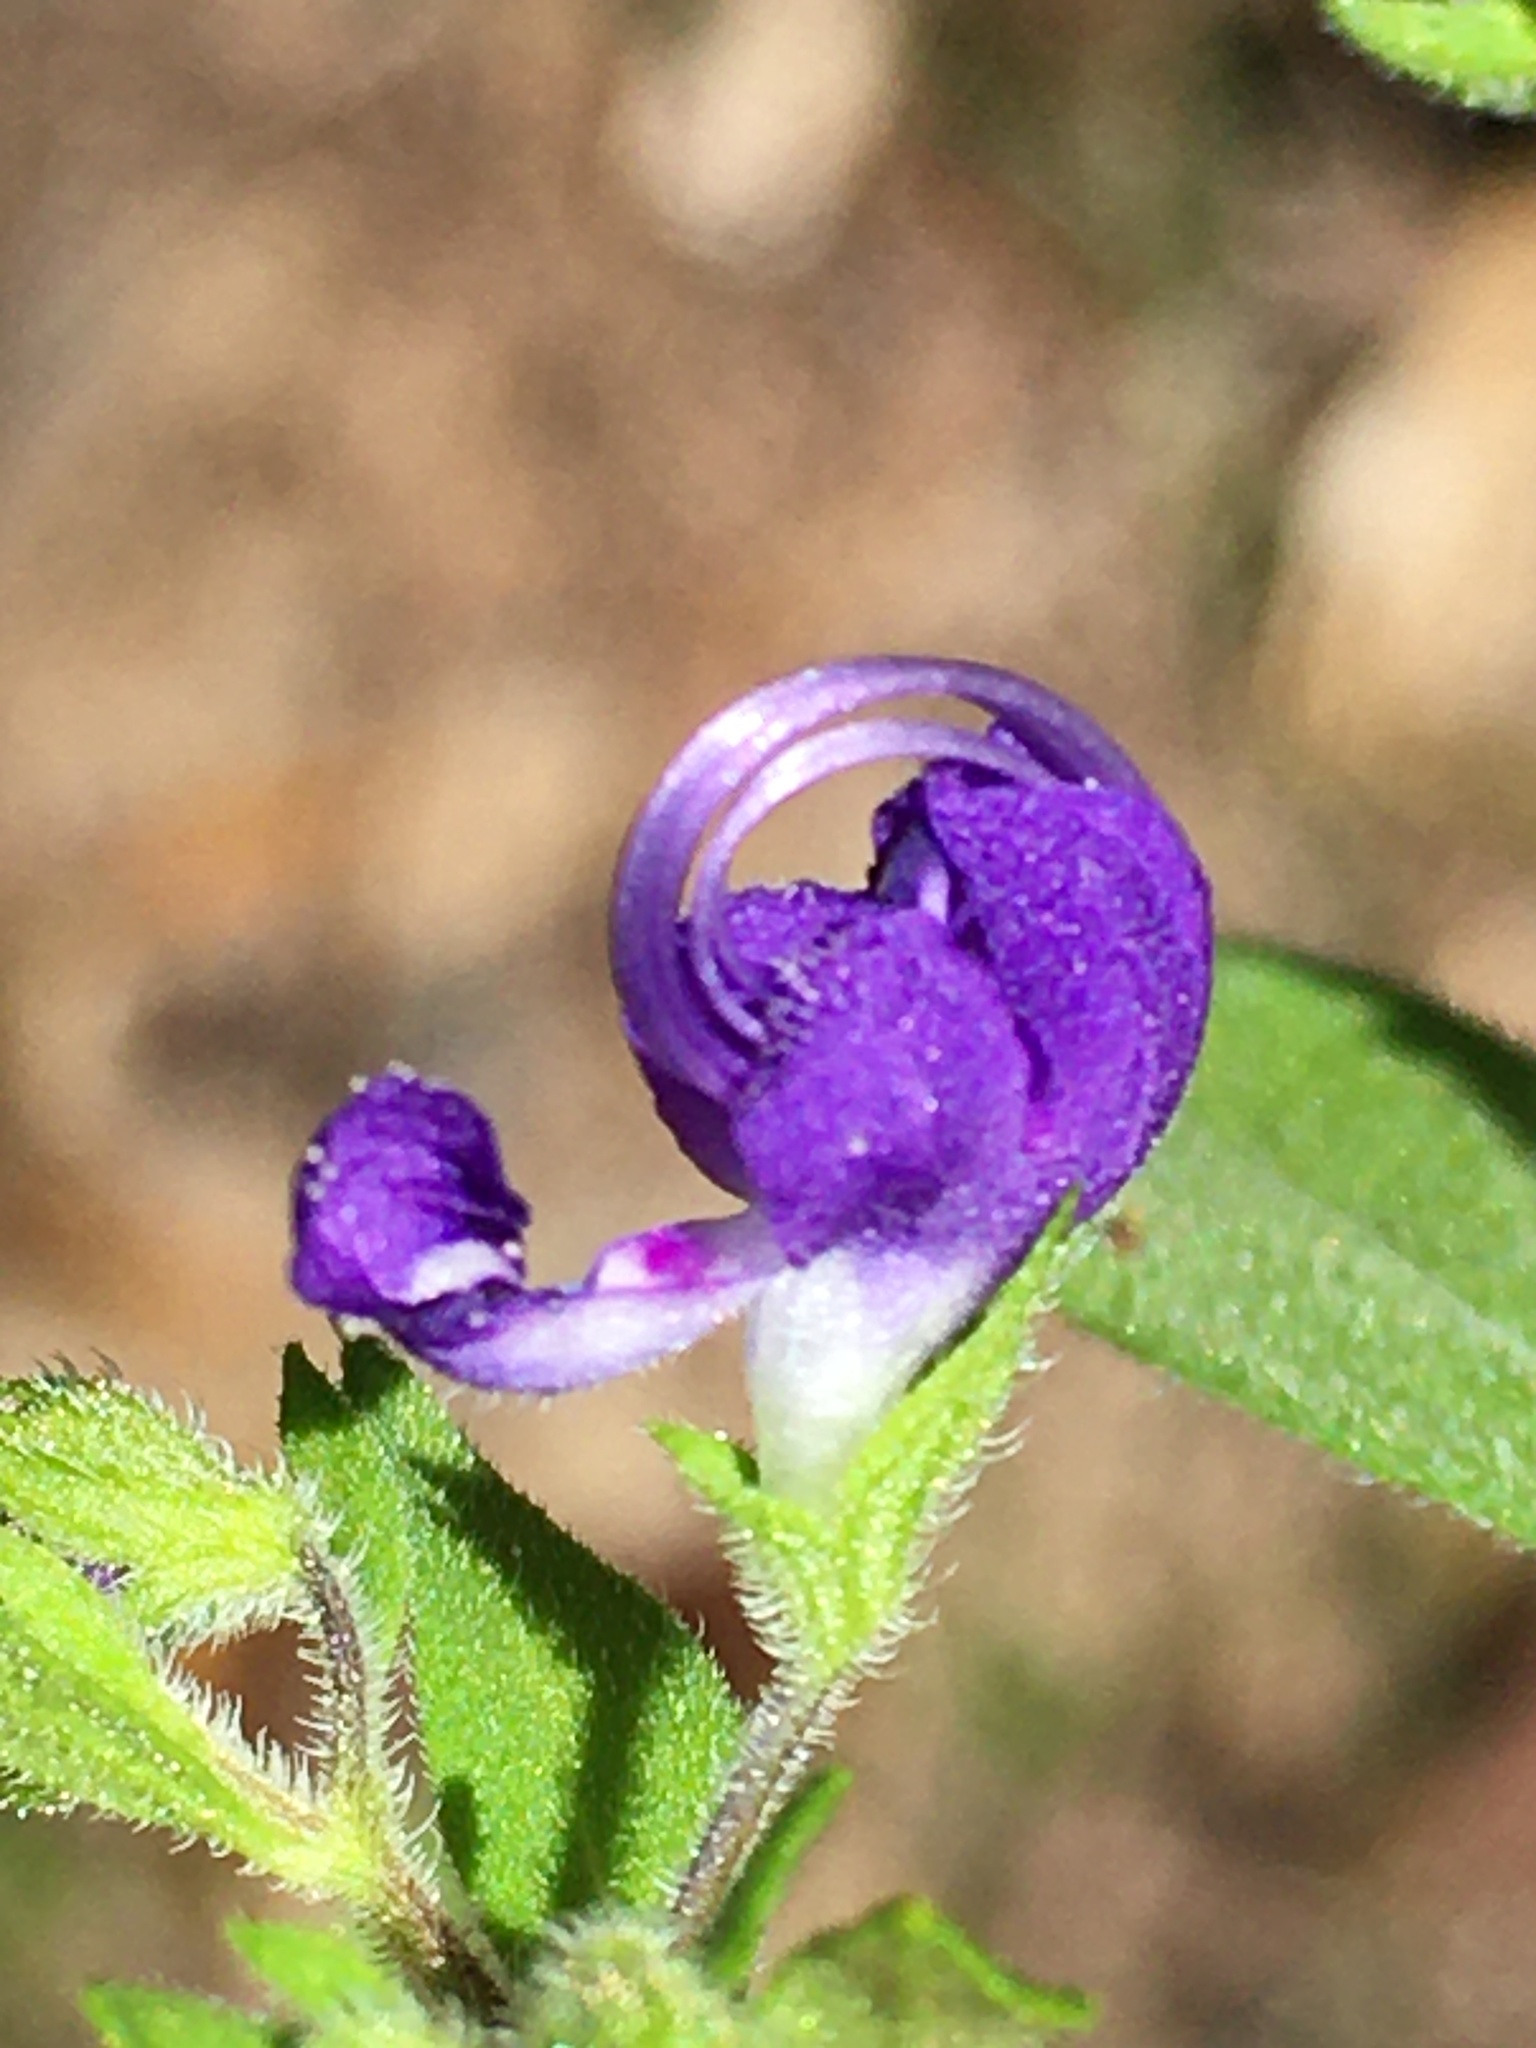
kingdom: Plantae
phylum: Tracheophyta
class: Magnoliopsida
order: Lamiales
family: Lamiaceae
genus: Trichostema
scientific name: Trichostema dichotomum
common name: Bastard pennyroyal
